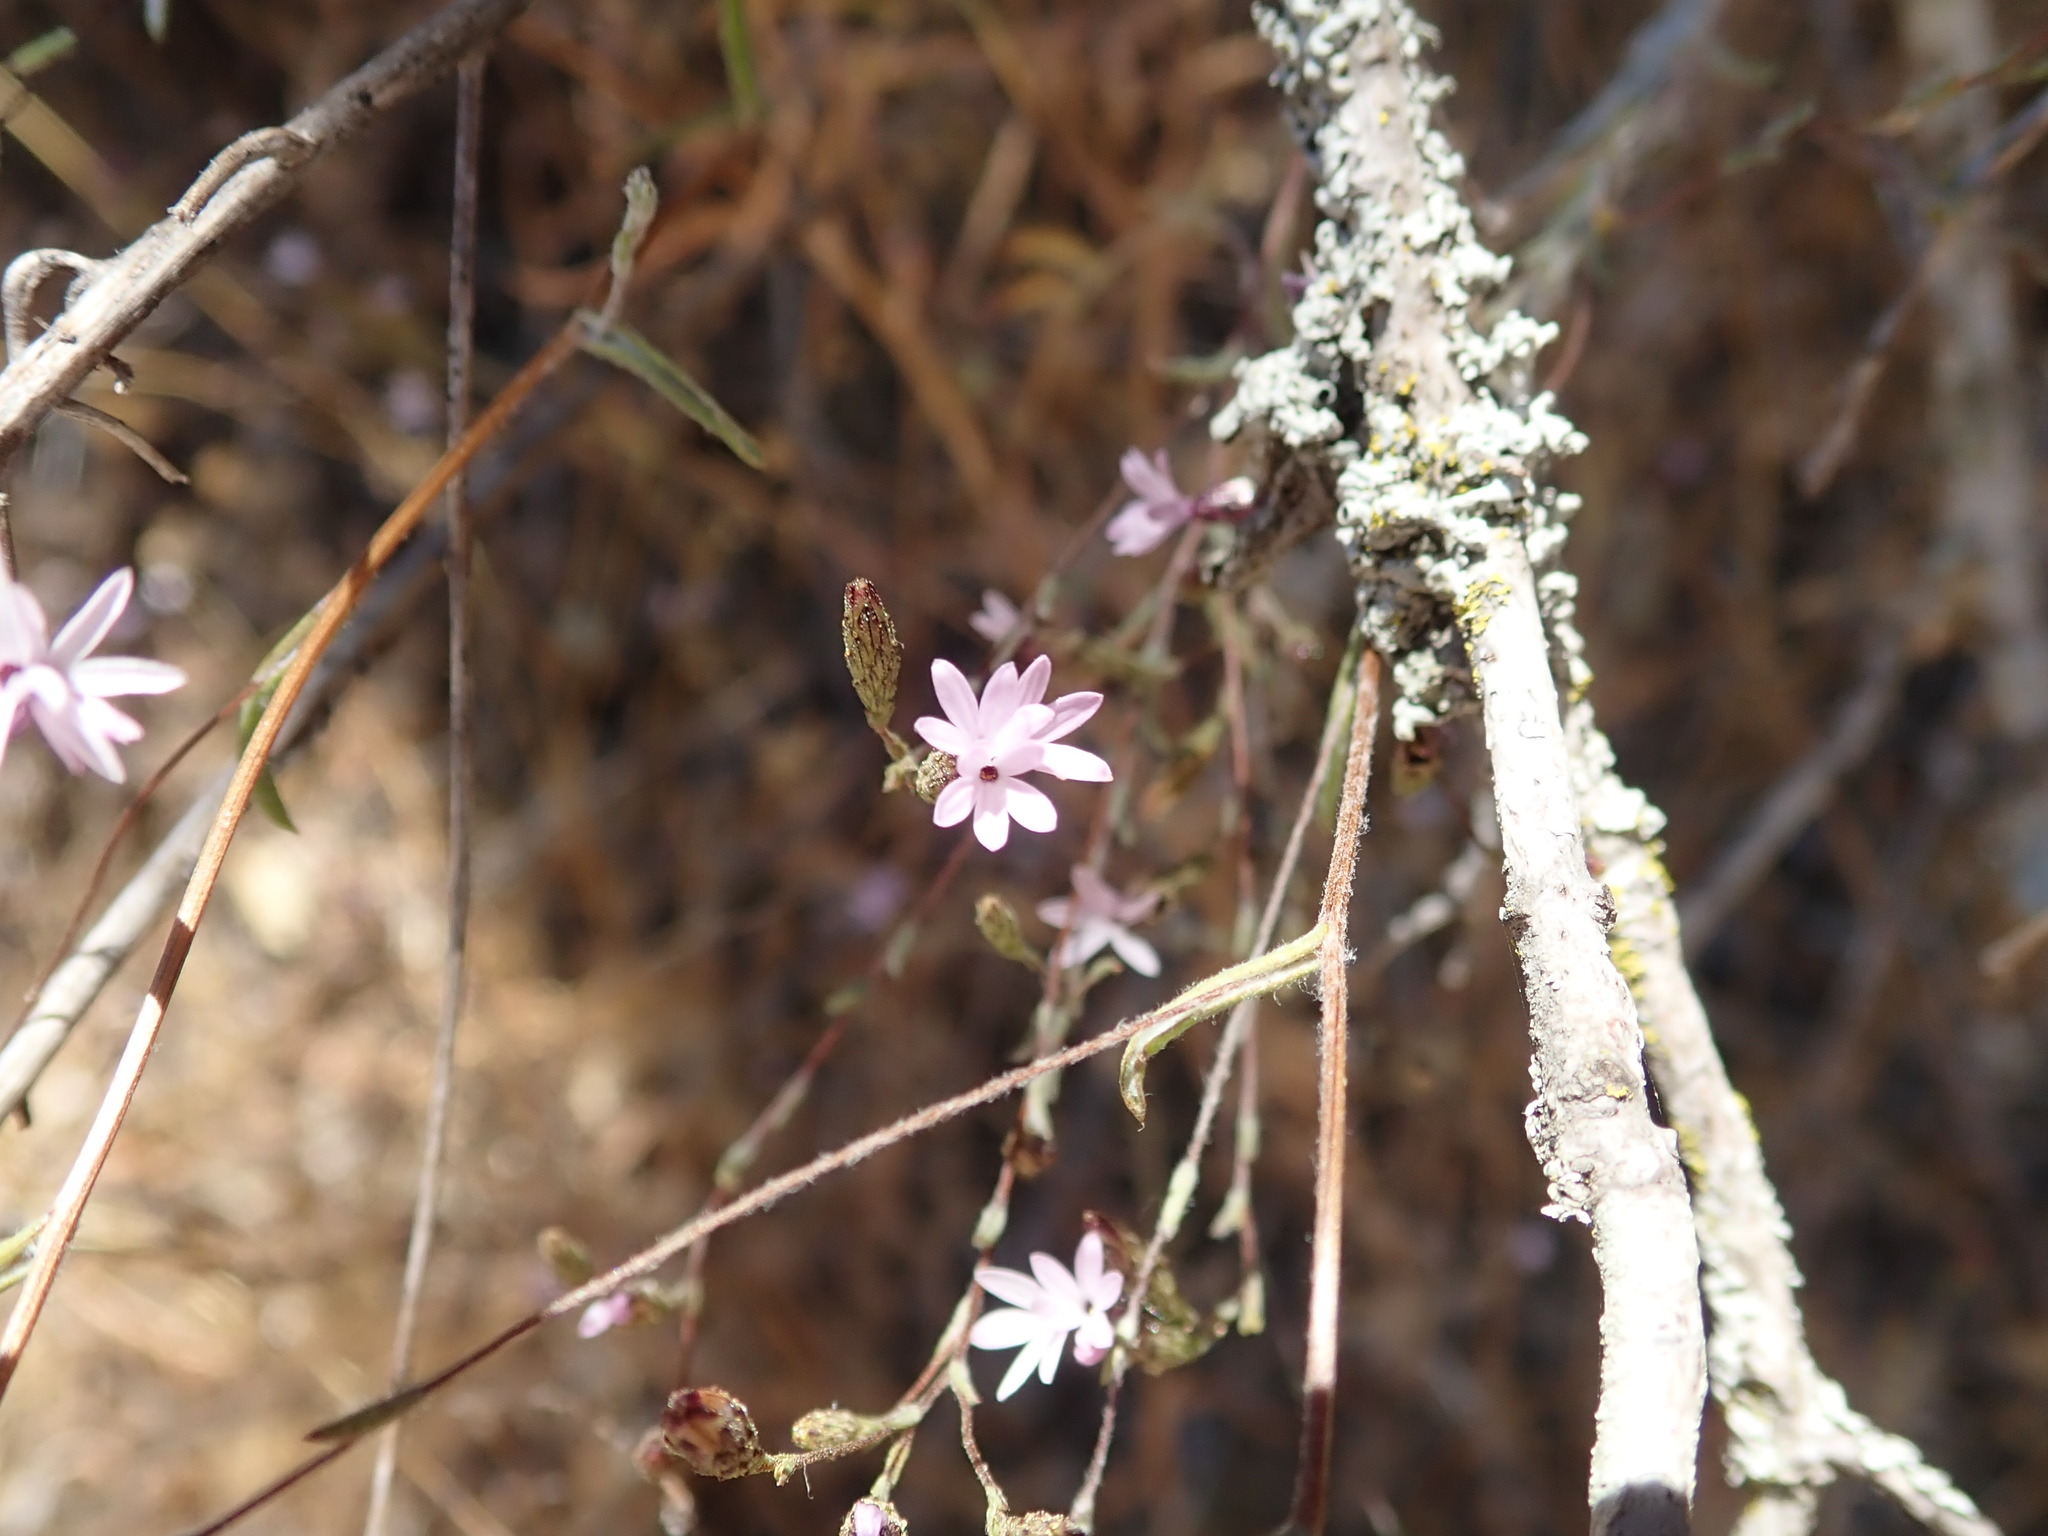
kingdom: Plantae
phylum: Tracheophyta
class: Magnoliopsida
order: Asterales
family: Asteraceae
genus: Lessingia
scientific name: Lessingia micradenia
